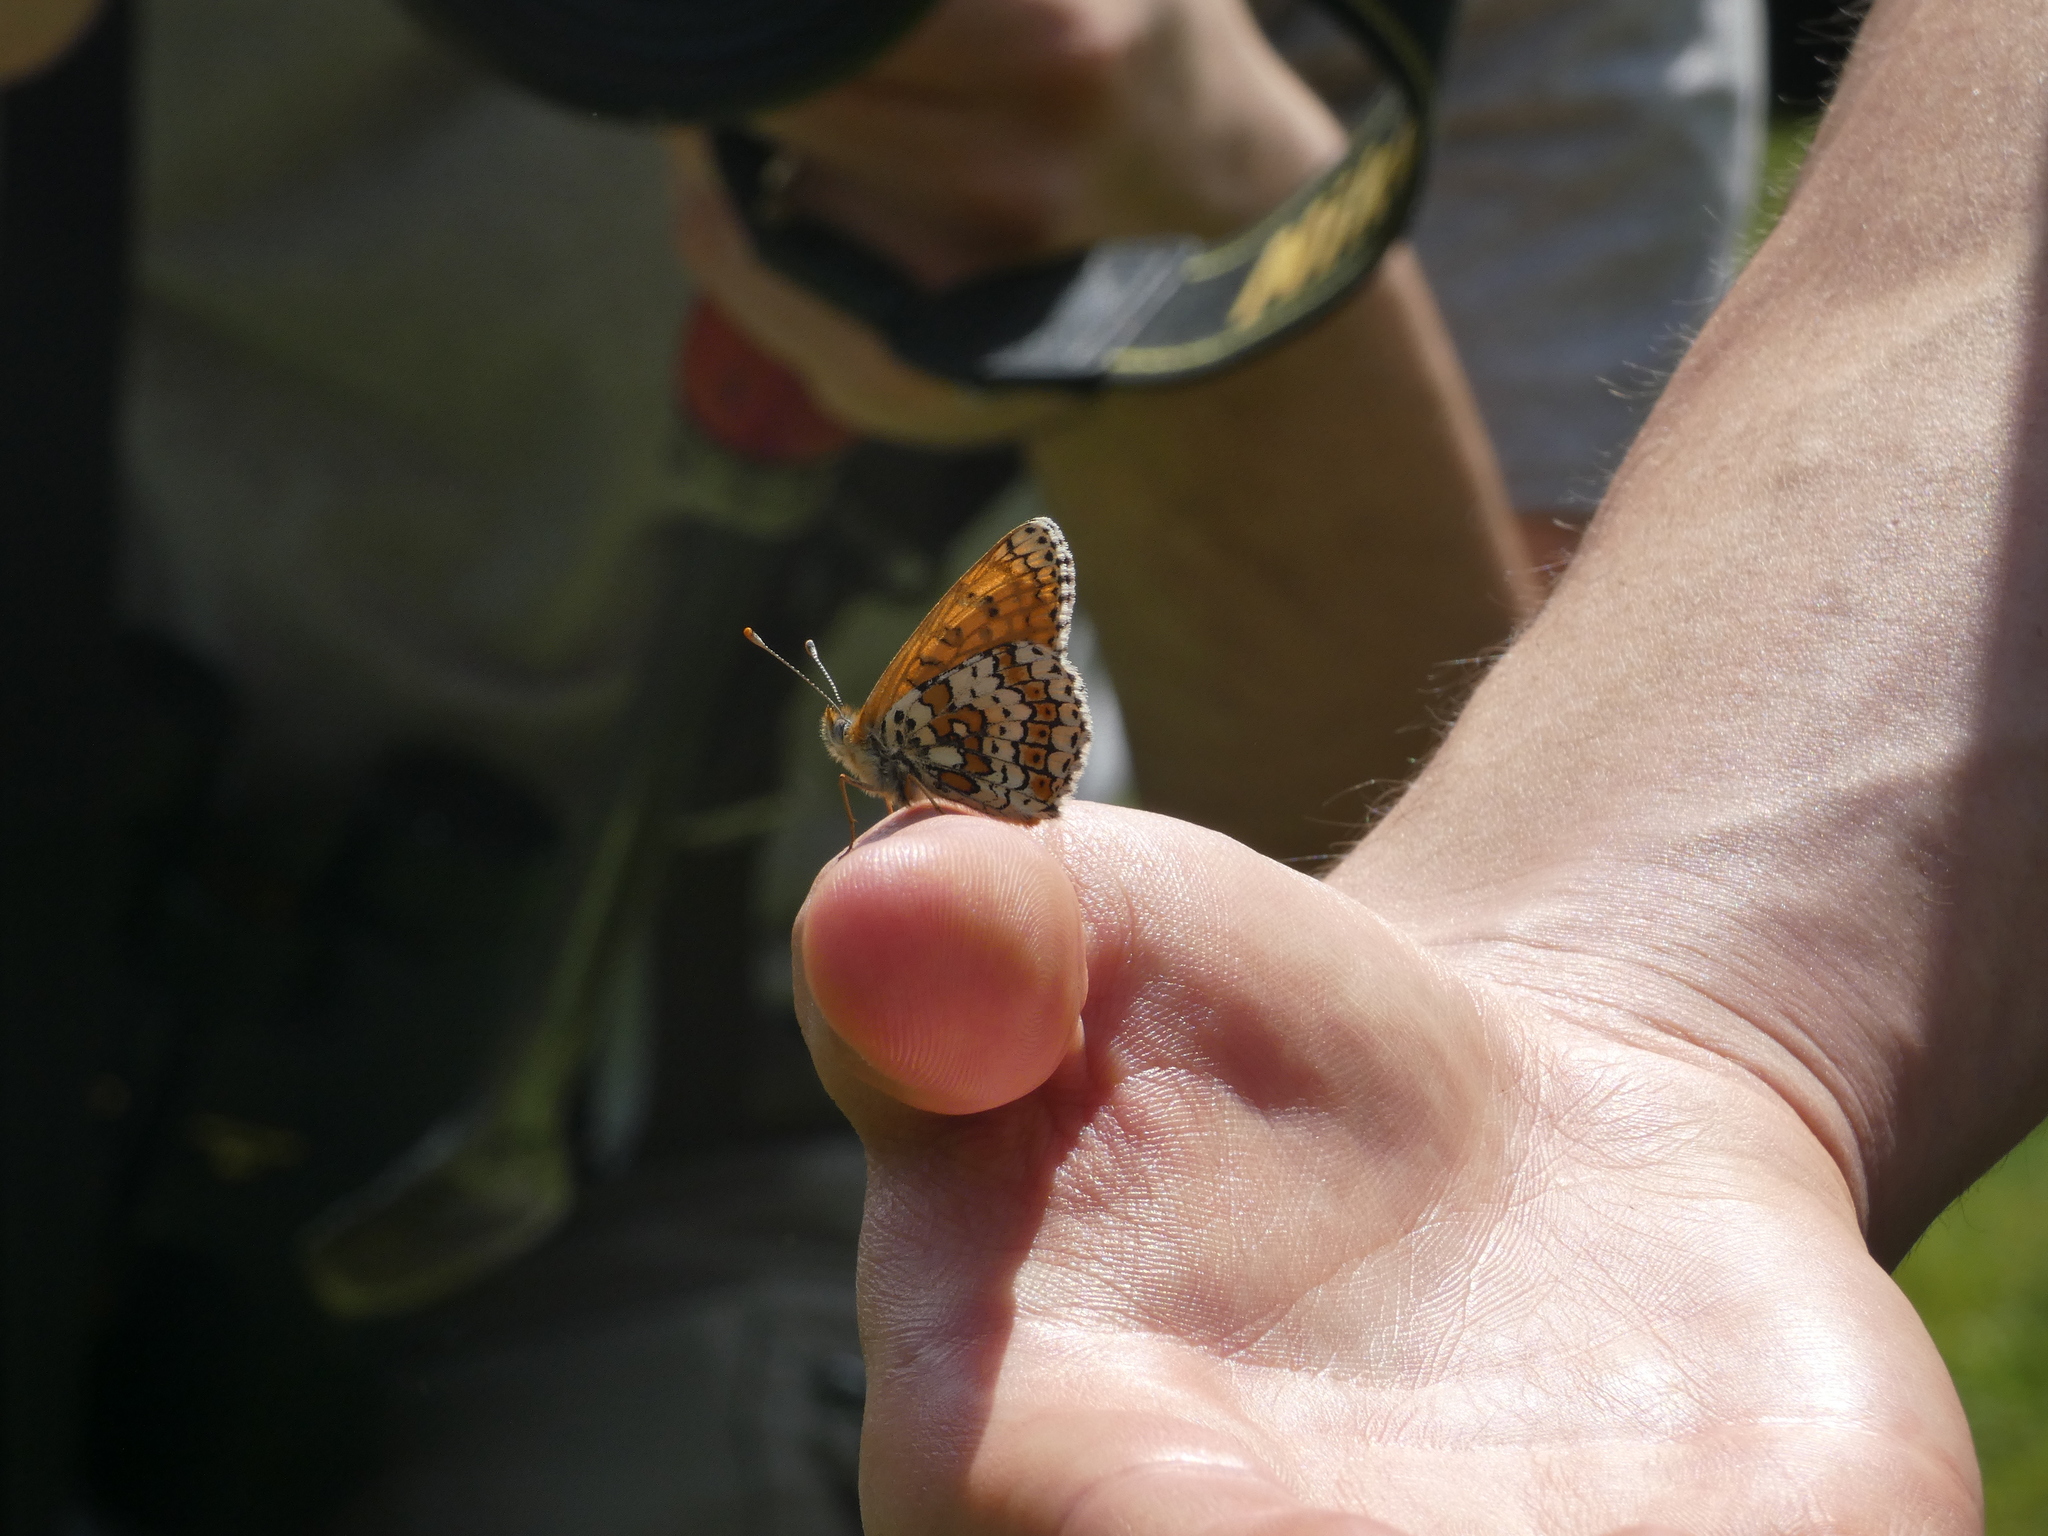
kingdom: Animalia
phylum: Arthropoda
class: Insecta
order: Lepidoptera
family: Nymphalidae
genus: Melitaea
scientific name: Melitaea cinxia
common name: Glanville fritillary
